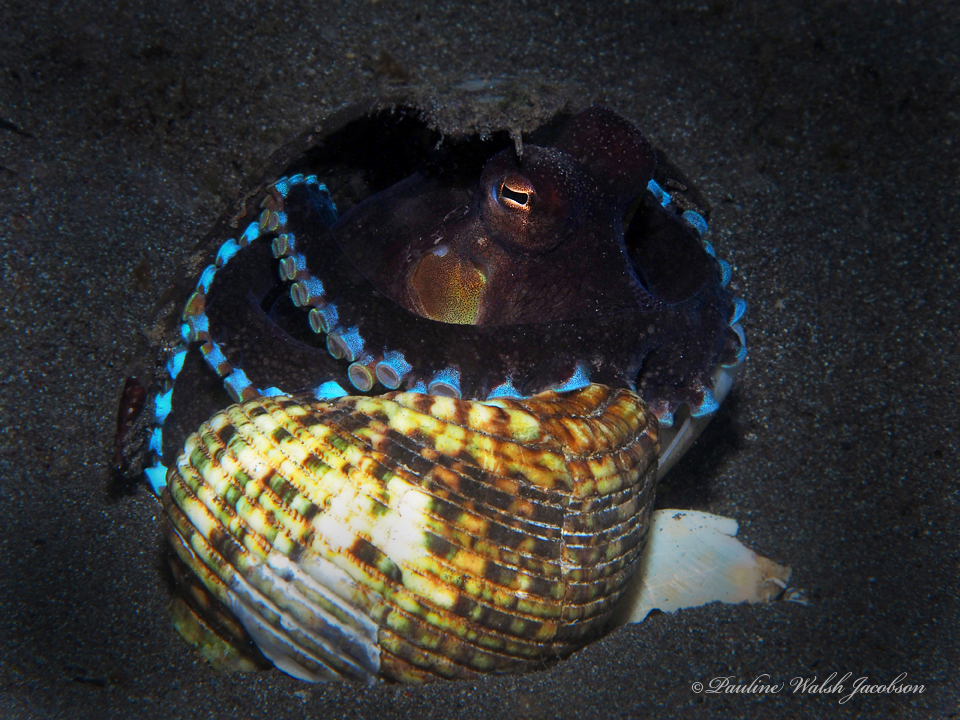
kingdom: Animalia
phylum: Mollusca
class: Cephalopoda
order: Octopoda
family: Octopodidae
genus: Amphioctopus
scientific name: Amphioctopus marginatus
